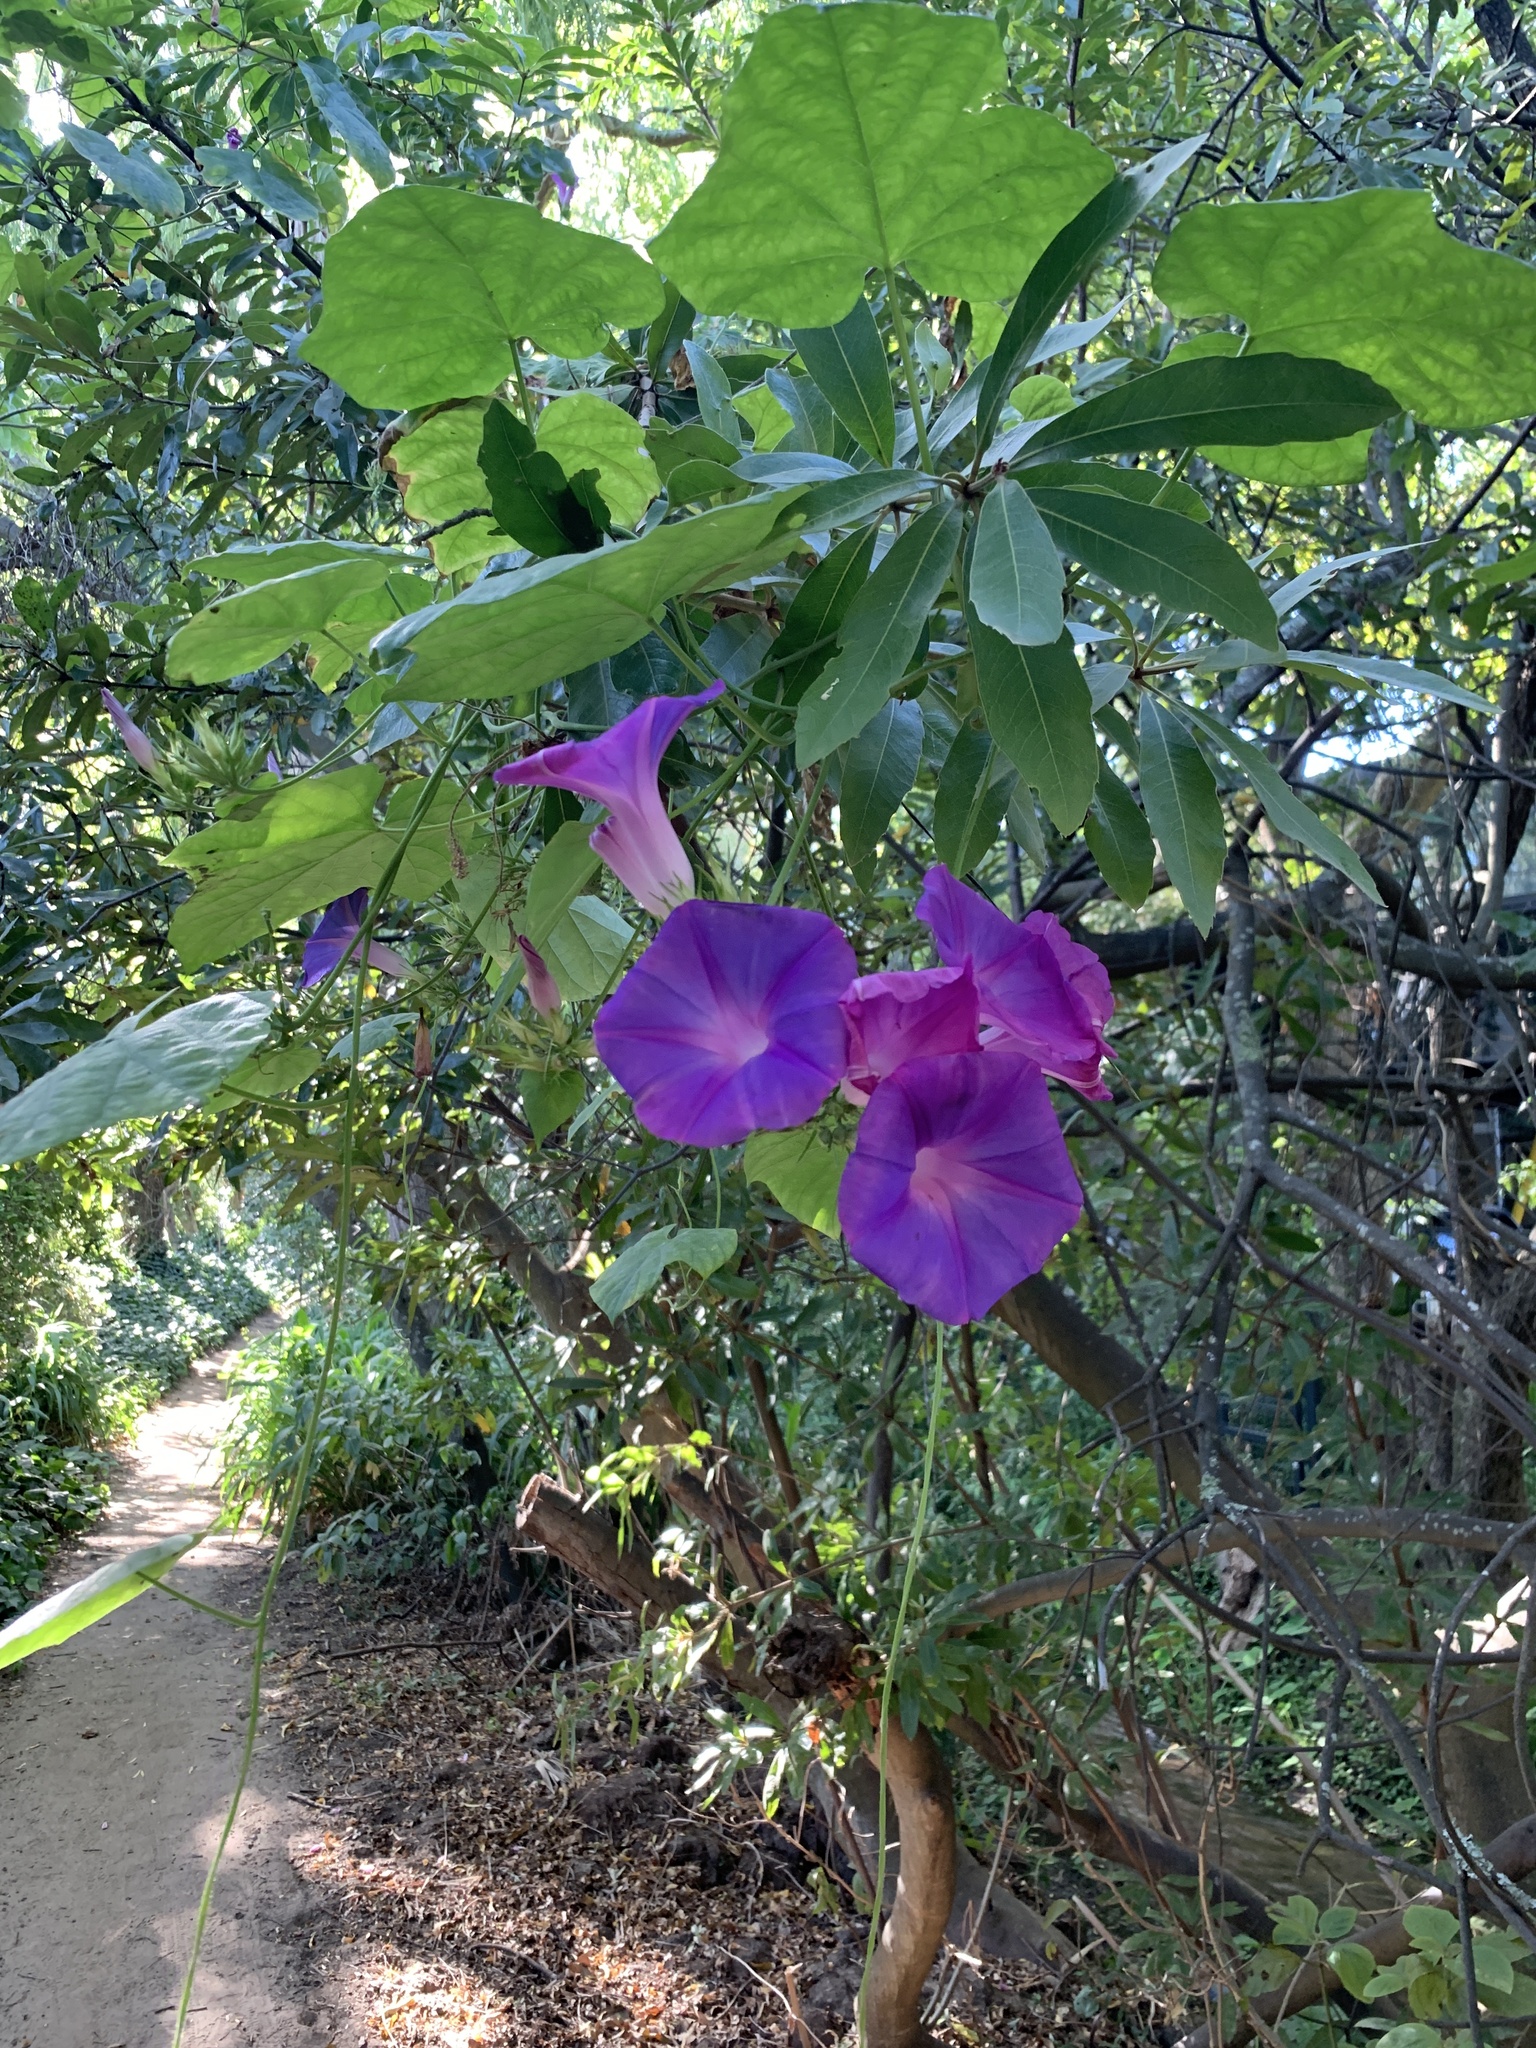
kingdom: Plantae
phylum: Tracheophyta
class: Magnoliopsida
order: Solanales
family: Convolvulaceae
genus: Ipomoea
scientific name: Ipomoea indica
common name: Blue dawnflower
